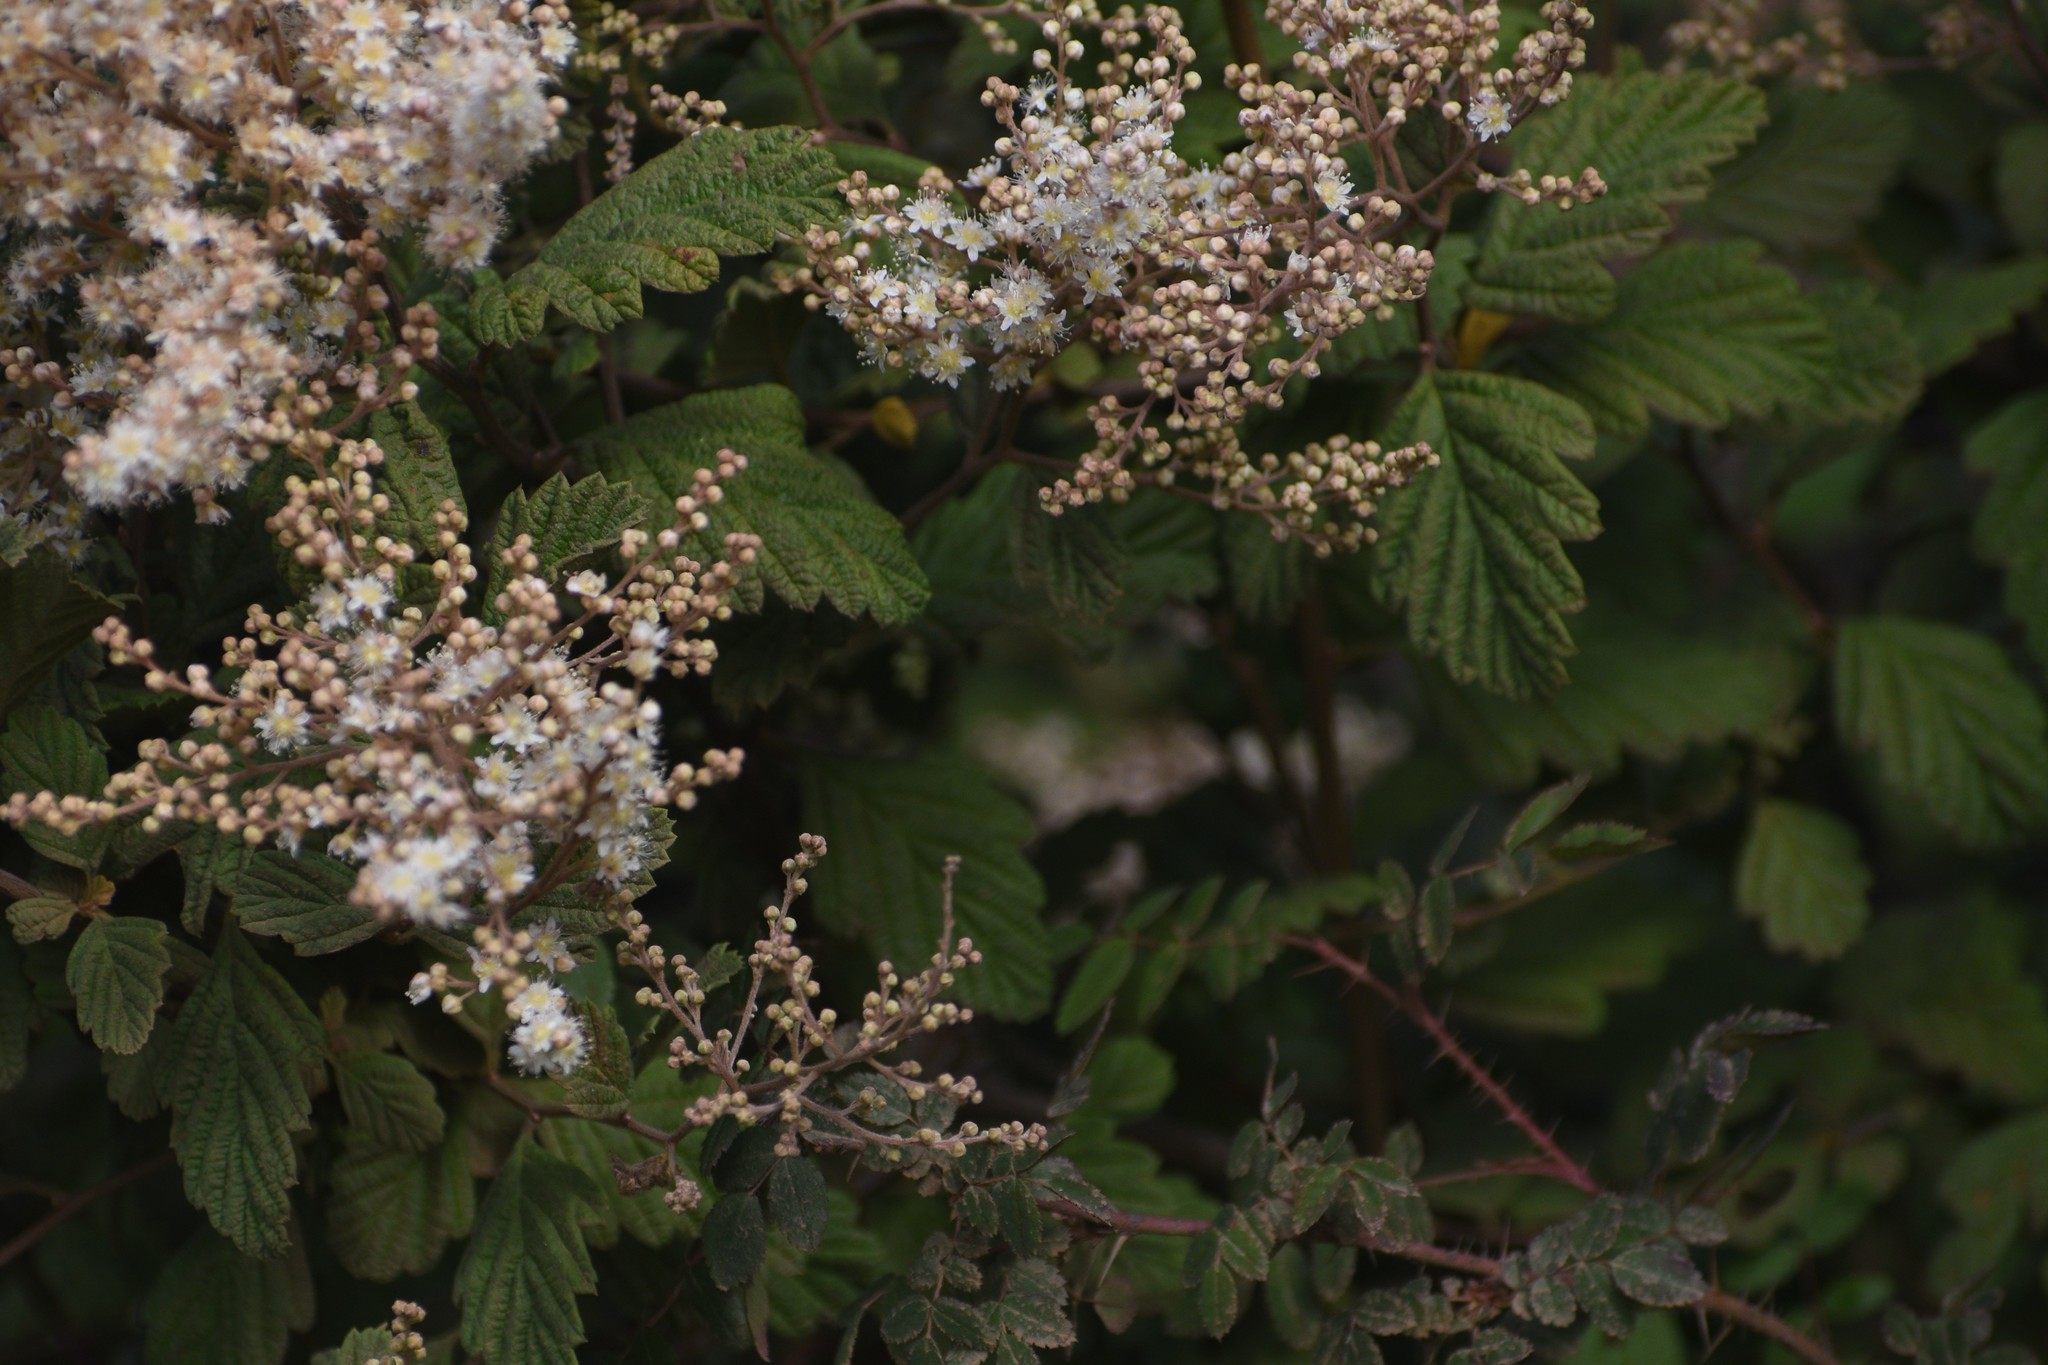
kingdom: Plantae
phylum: Tracheophyta
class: Magnoliopsida
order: Rosales
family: Rosaceae
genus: Holodiscus
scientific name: Holodiscus discolor
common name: Oceanspray
